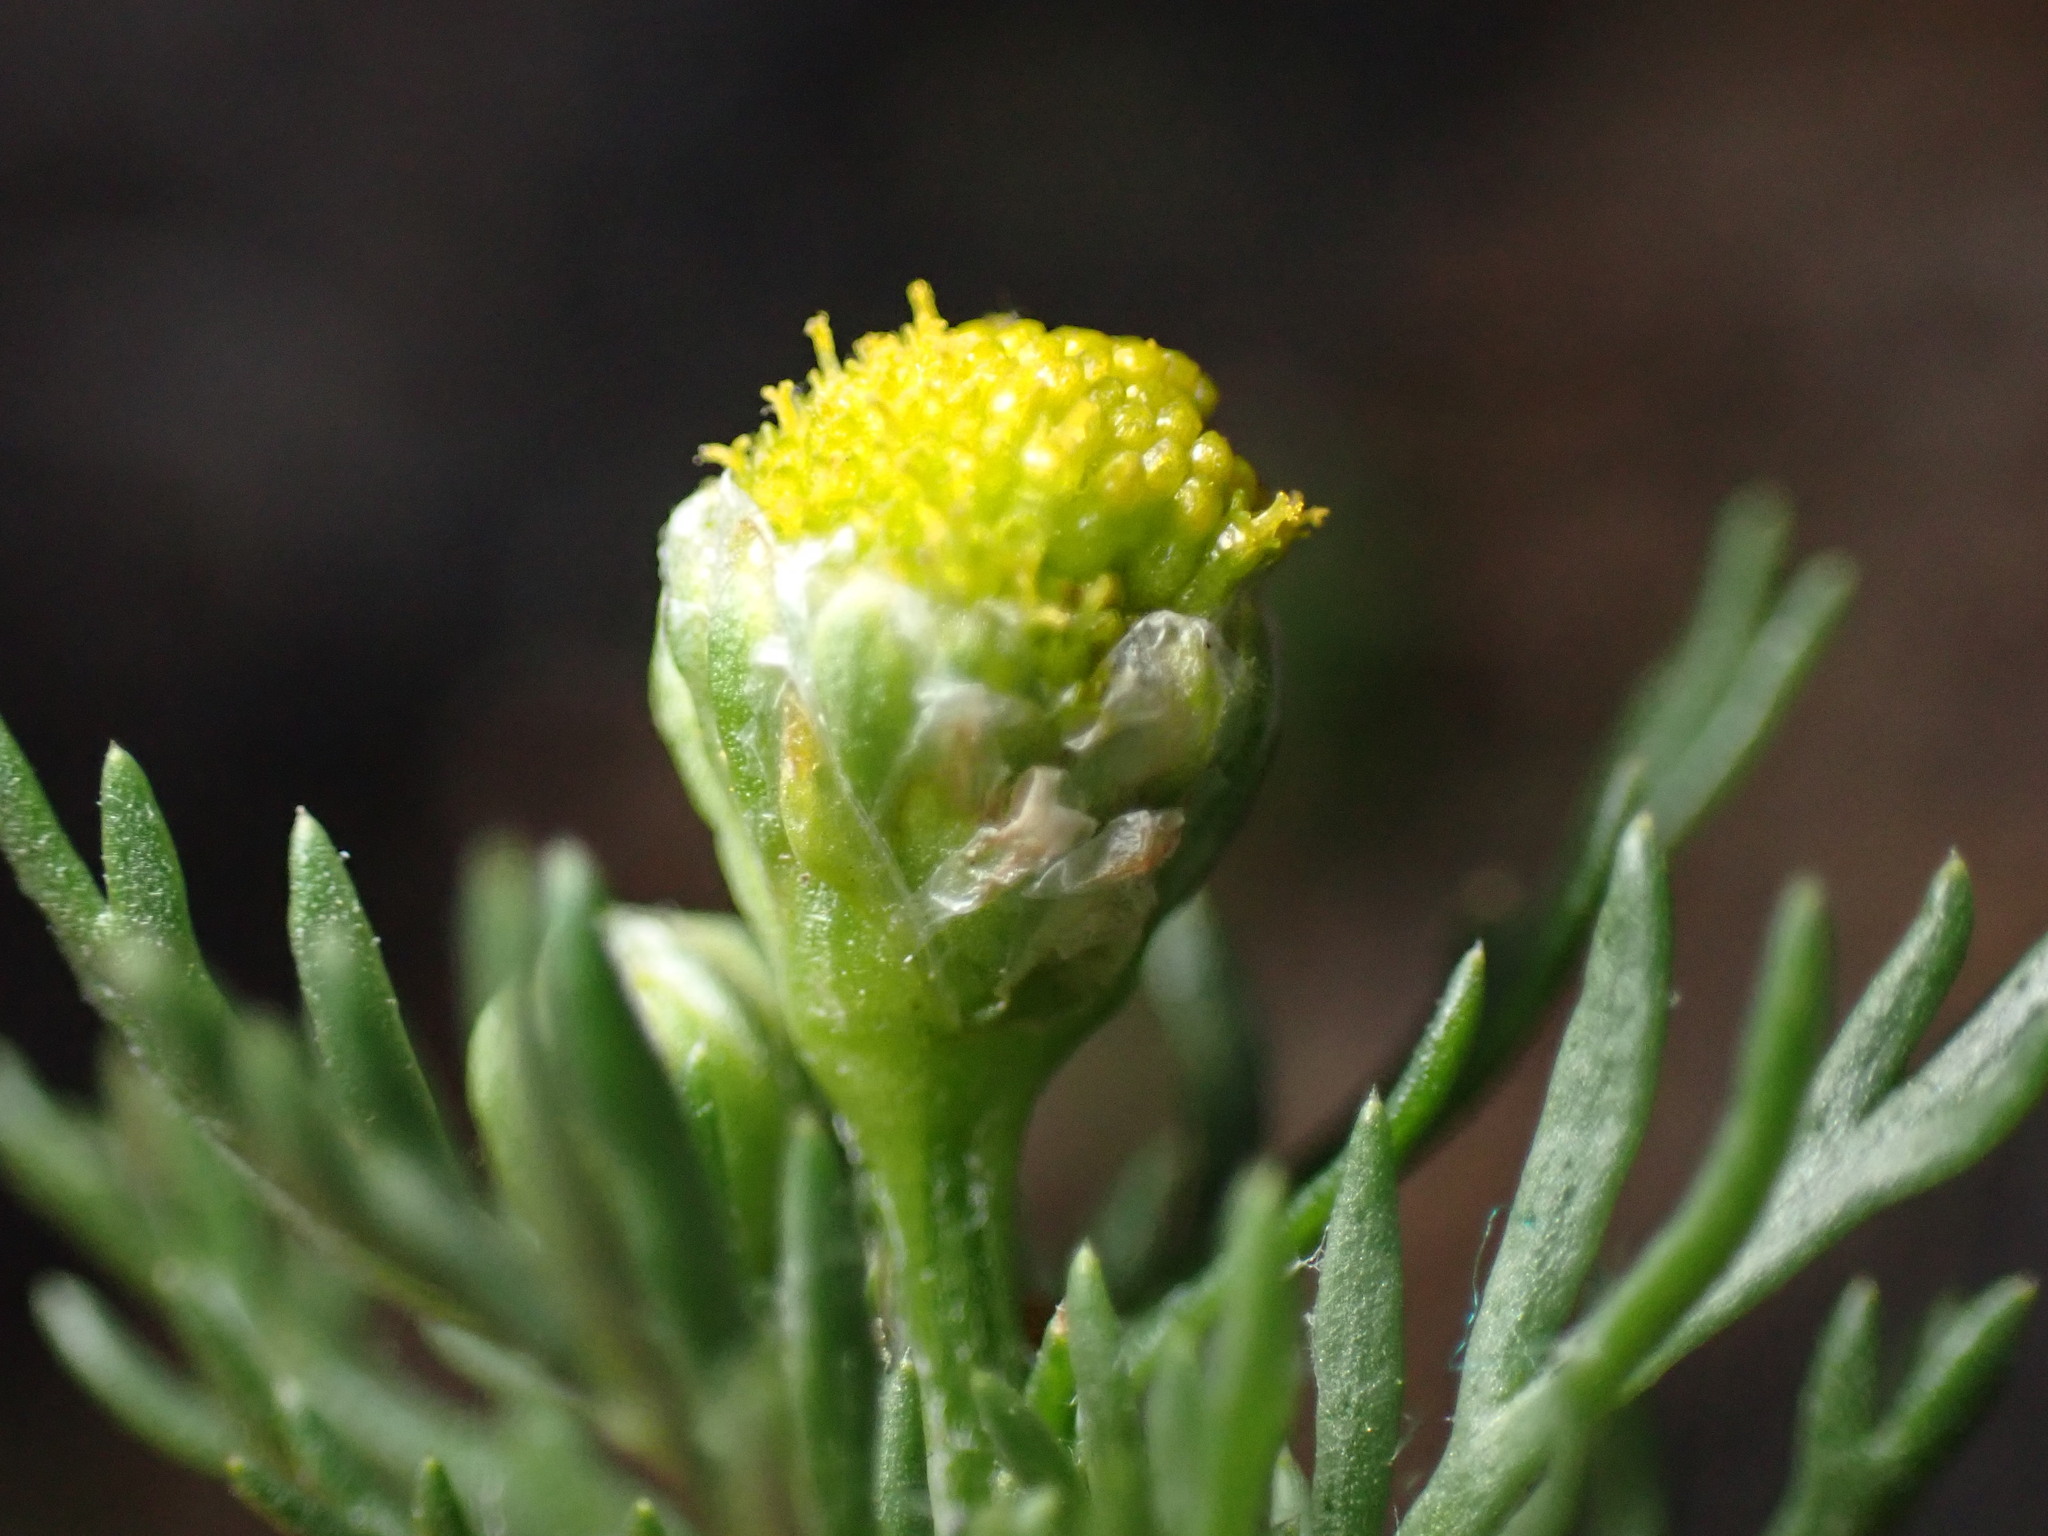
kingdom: Plantae
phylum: Tracheophyta
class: Magnoliopsida
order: Asterales
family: Asteraceae
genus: Matricaria
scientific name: Matricaria discoidea
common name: Disc mayweed
